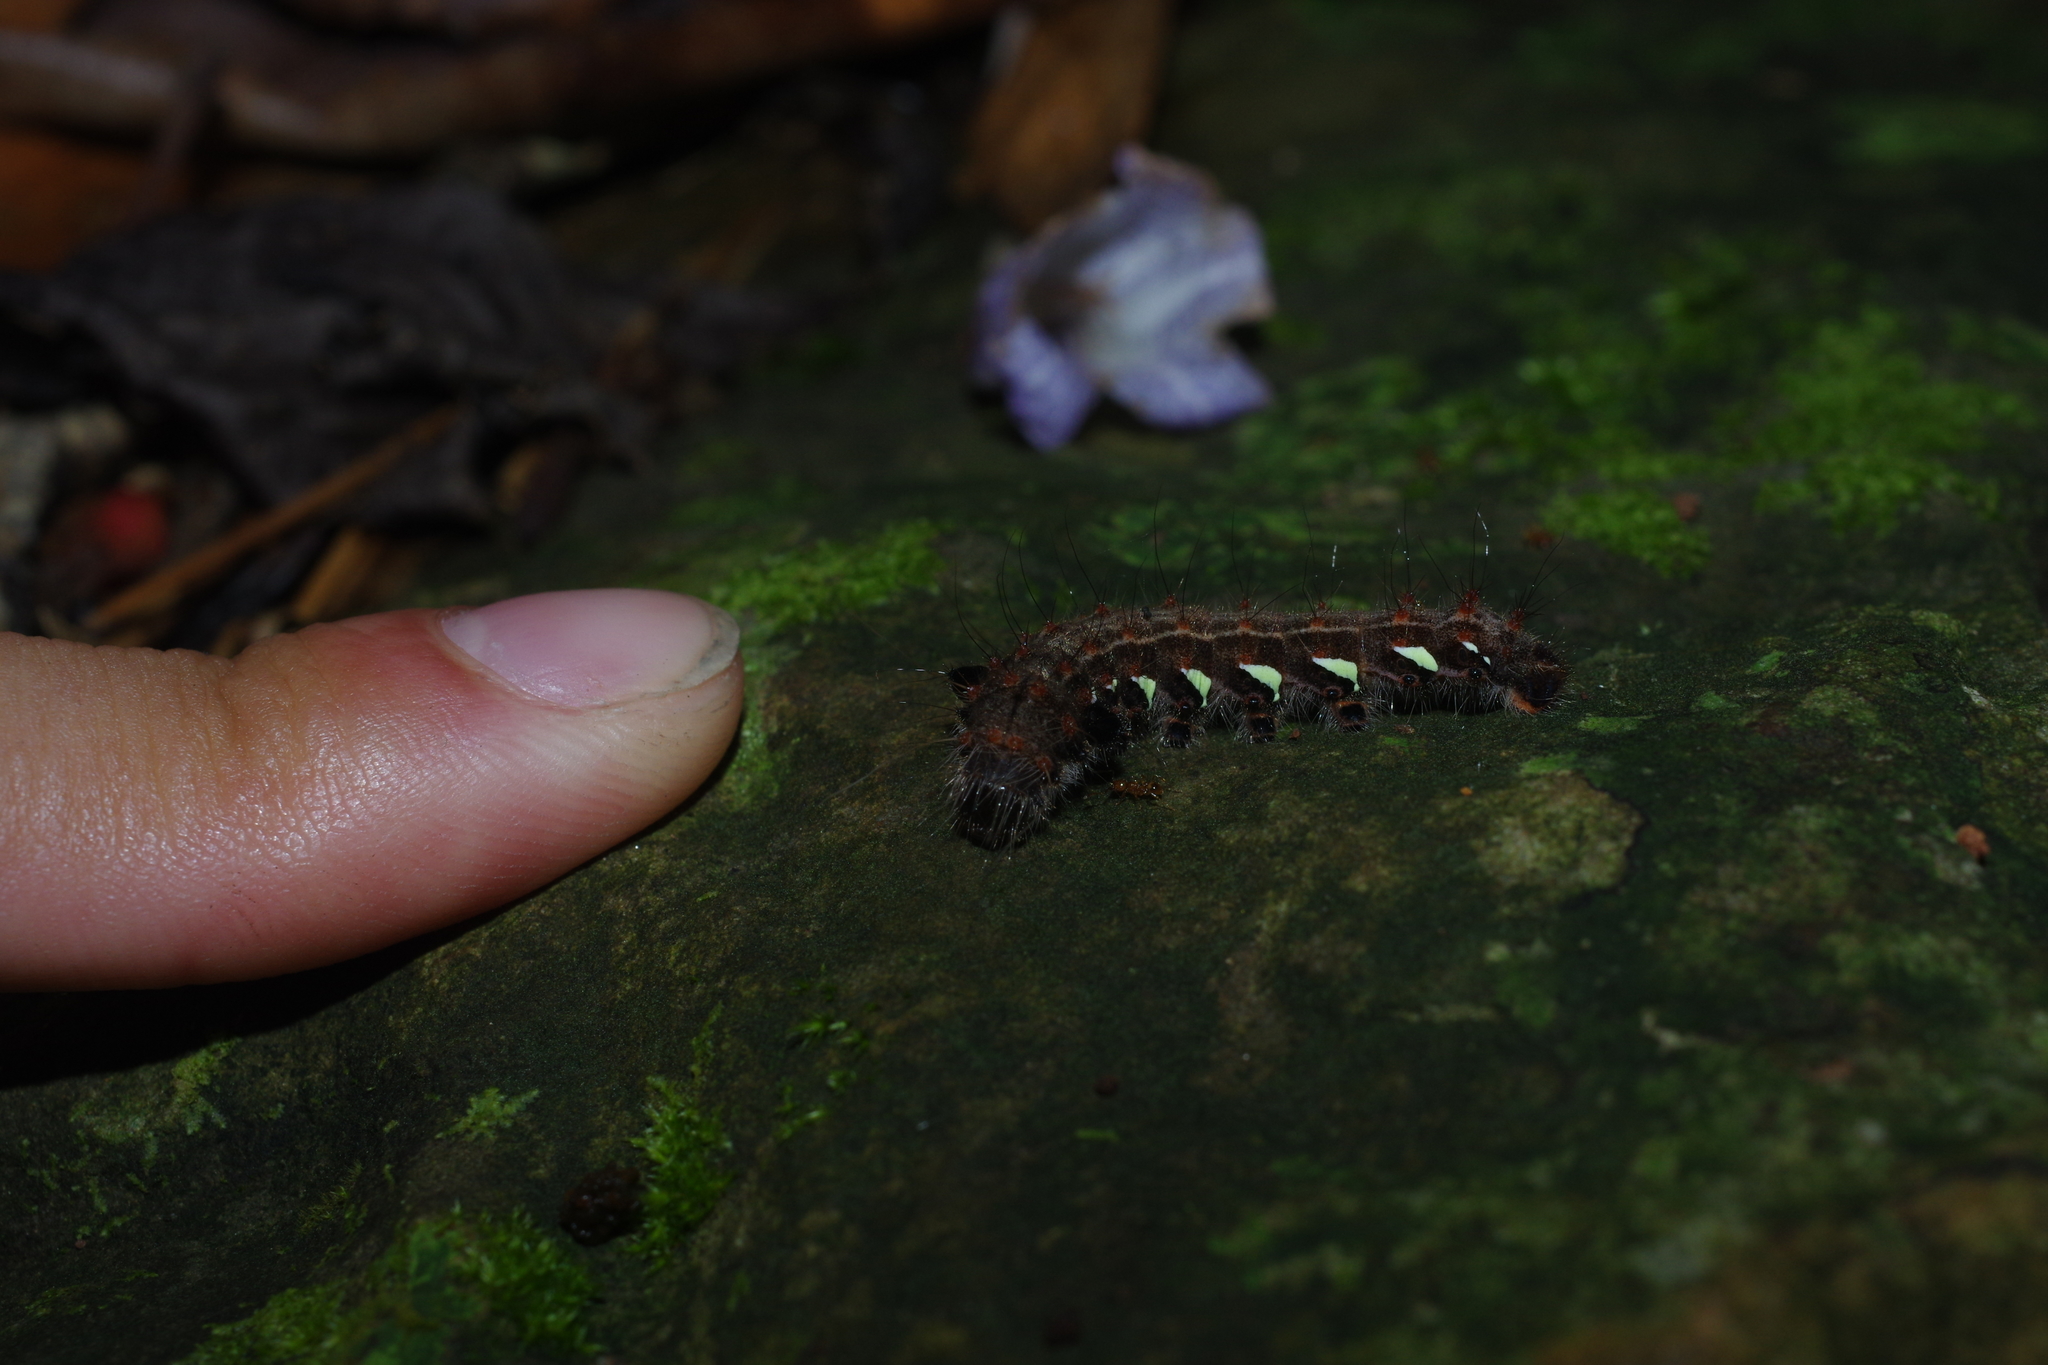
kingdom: Animalia
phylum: Arthropoda
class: Insecta
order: Lepidoptera
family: Saturniidae
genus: Loepa
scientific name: Loepa formosensis
